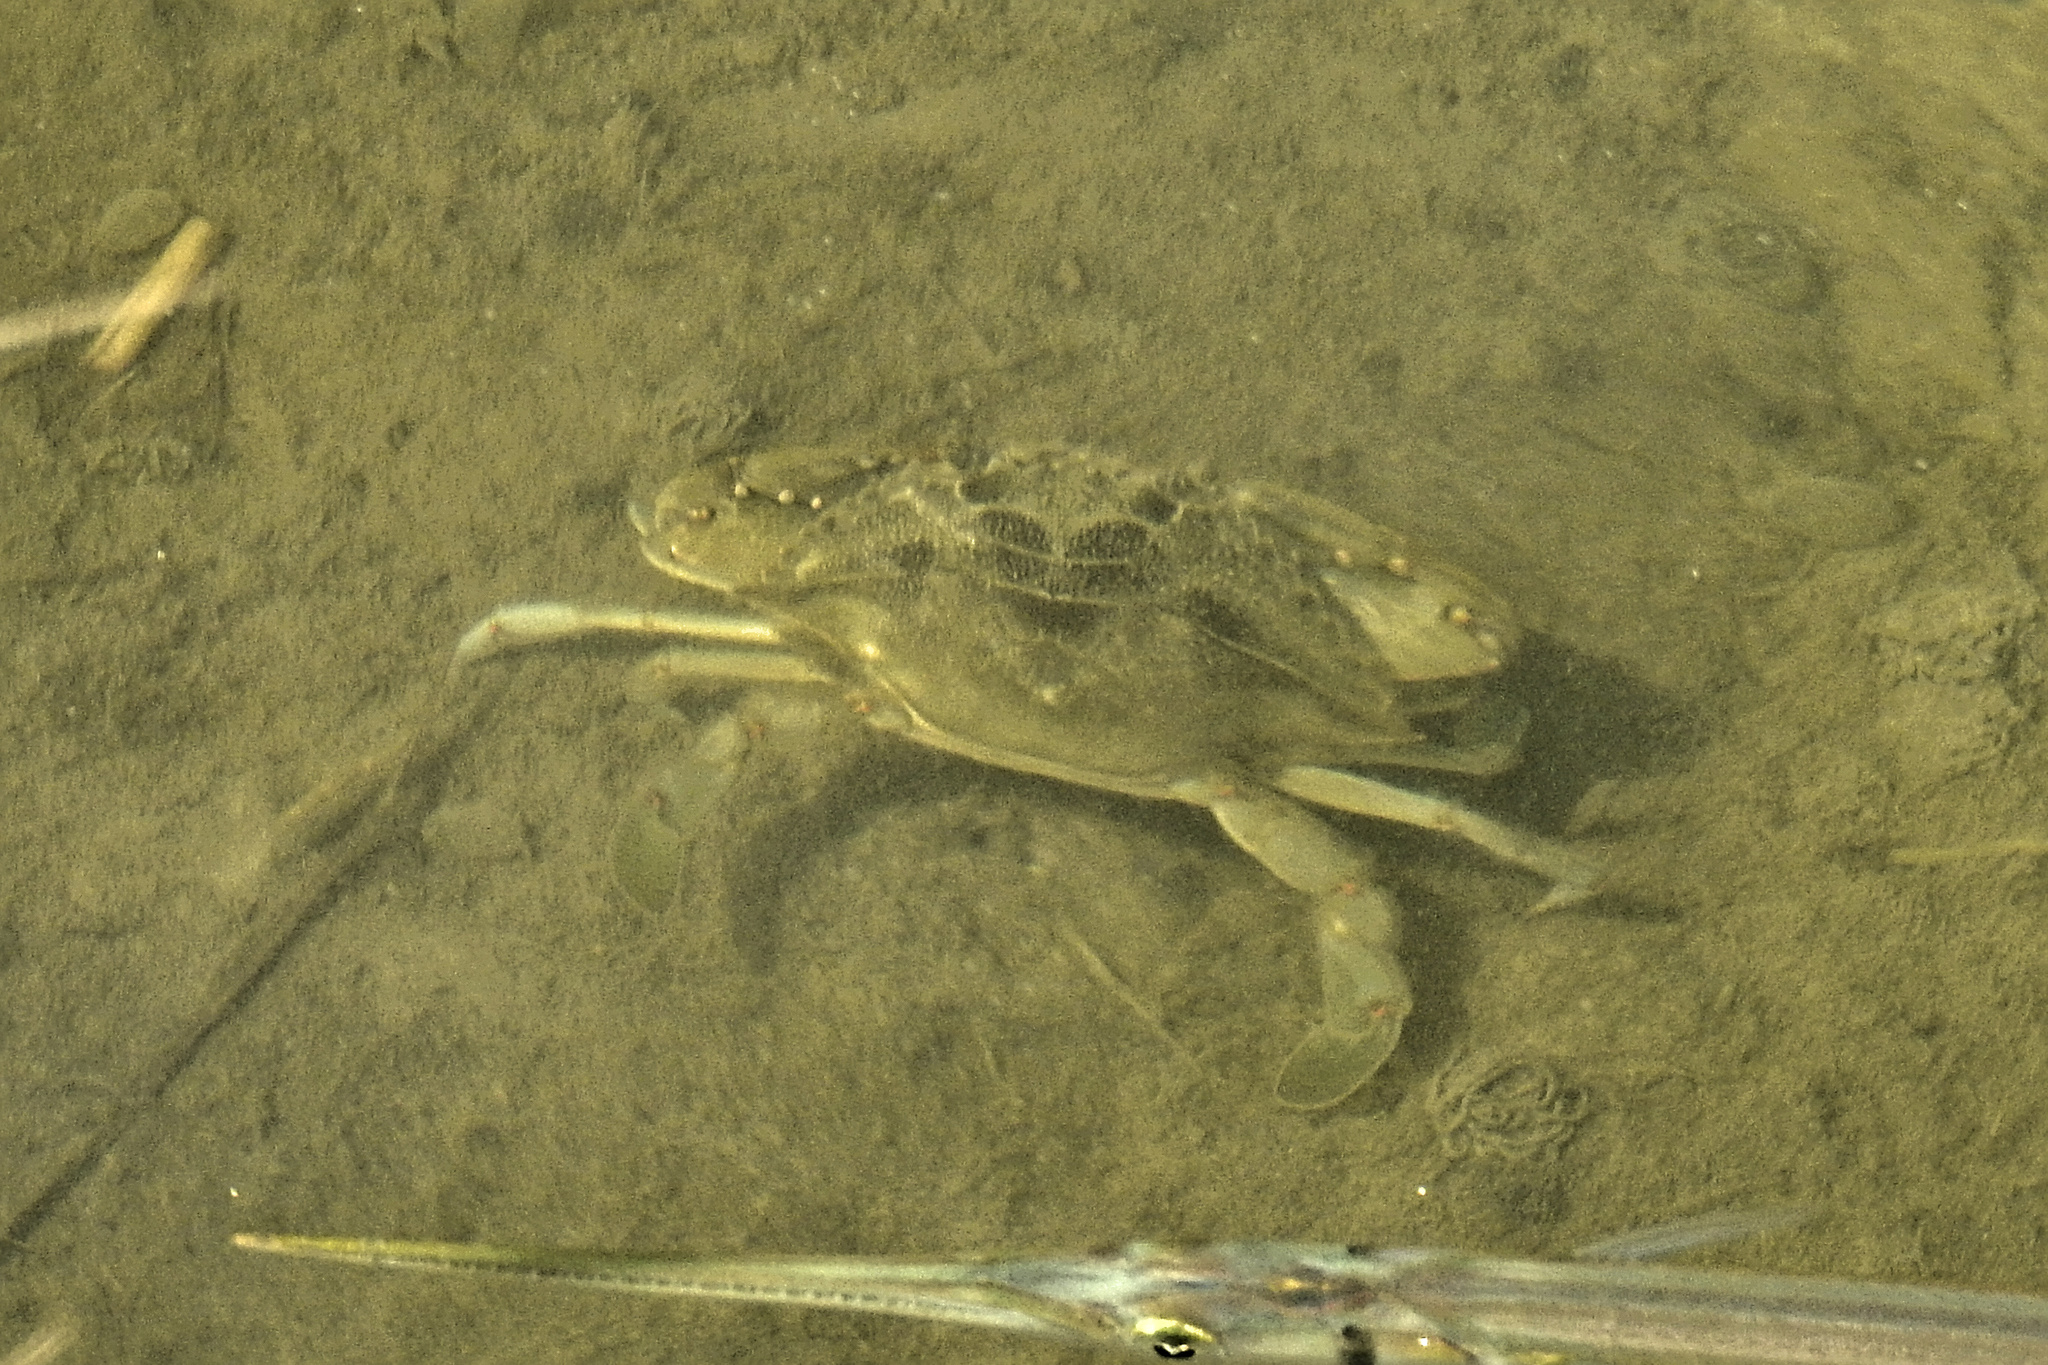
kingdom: Animalia
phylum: Arthropoda
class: Malacostraca
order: Decapoda
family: Portunidae
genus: Callinectes
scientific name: Callinectes sapidus
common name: Blue crab
